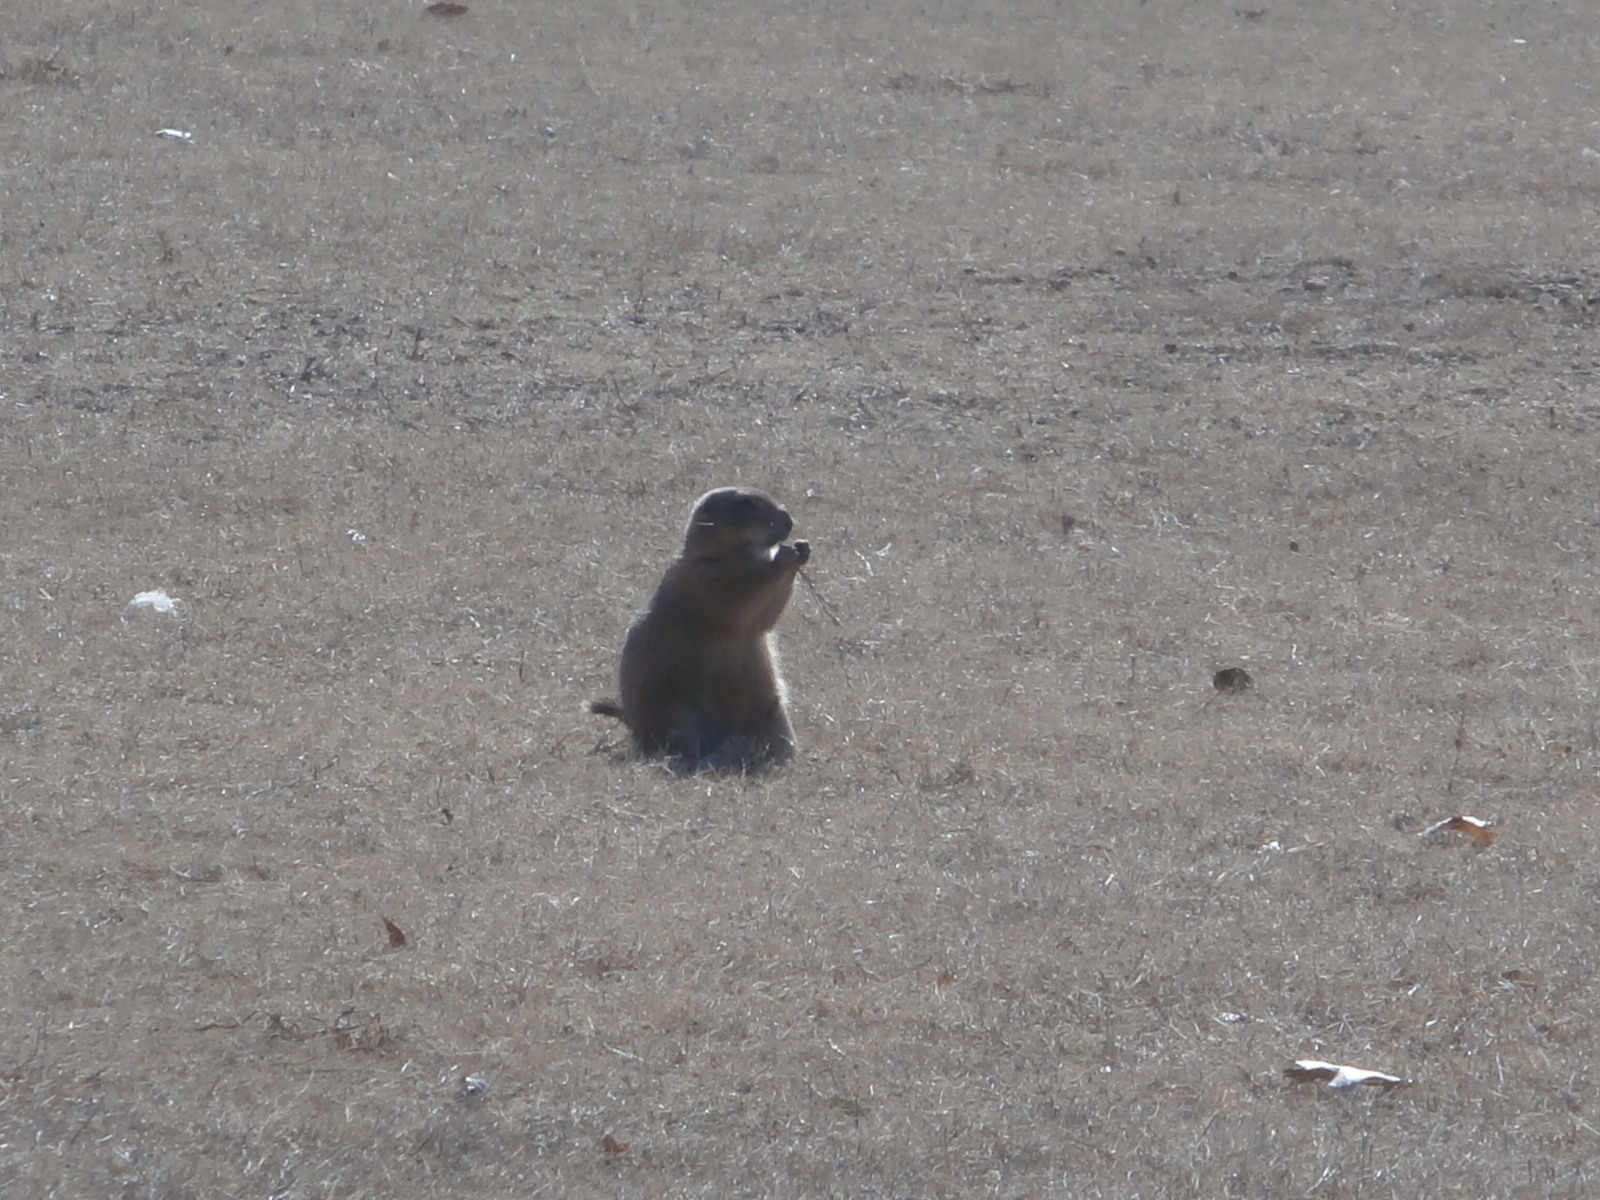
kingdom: Animalia
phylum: Chordata
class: Mammalia
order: Rodentia
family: Sciuridae
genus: Cynomys
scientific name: Cynomys ludovicianus
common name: Black-tailed prairie dog
